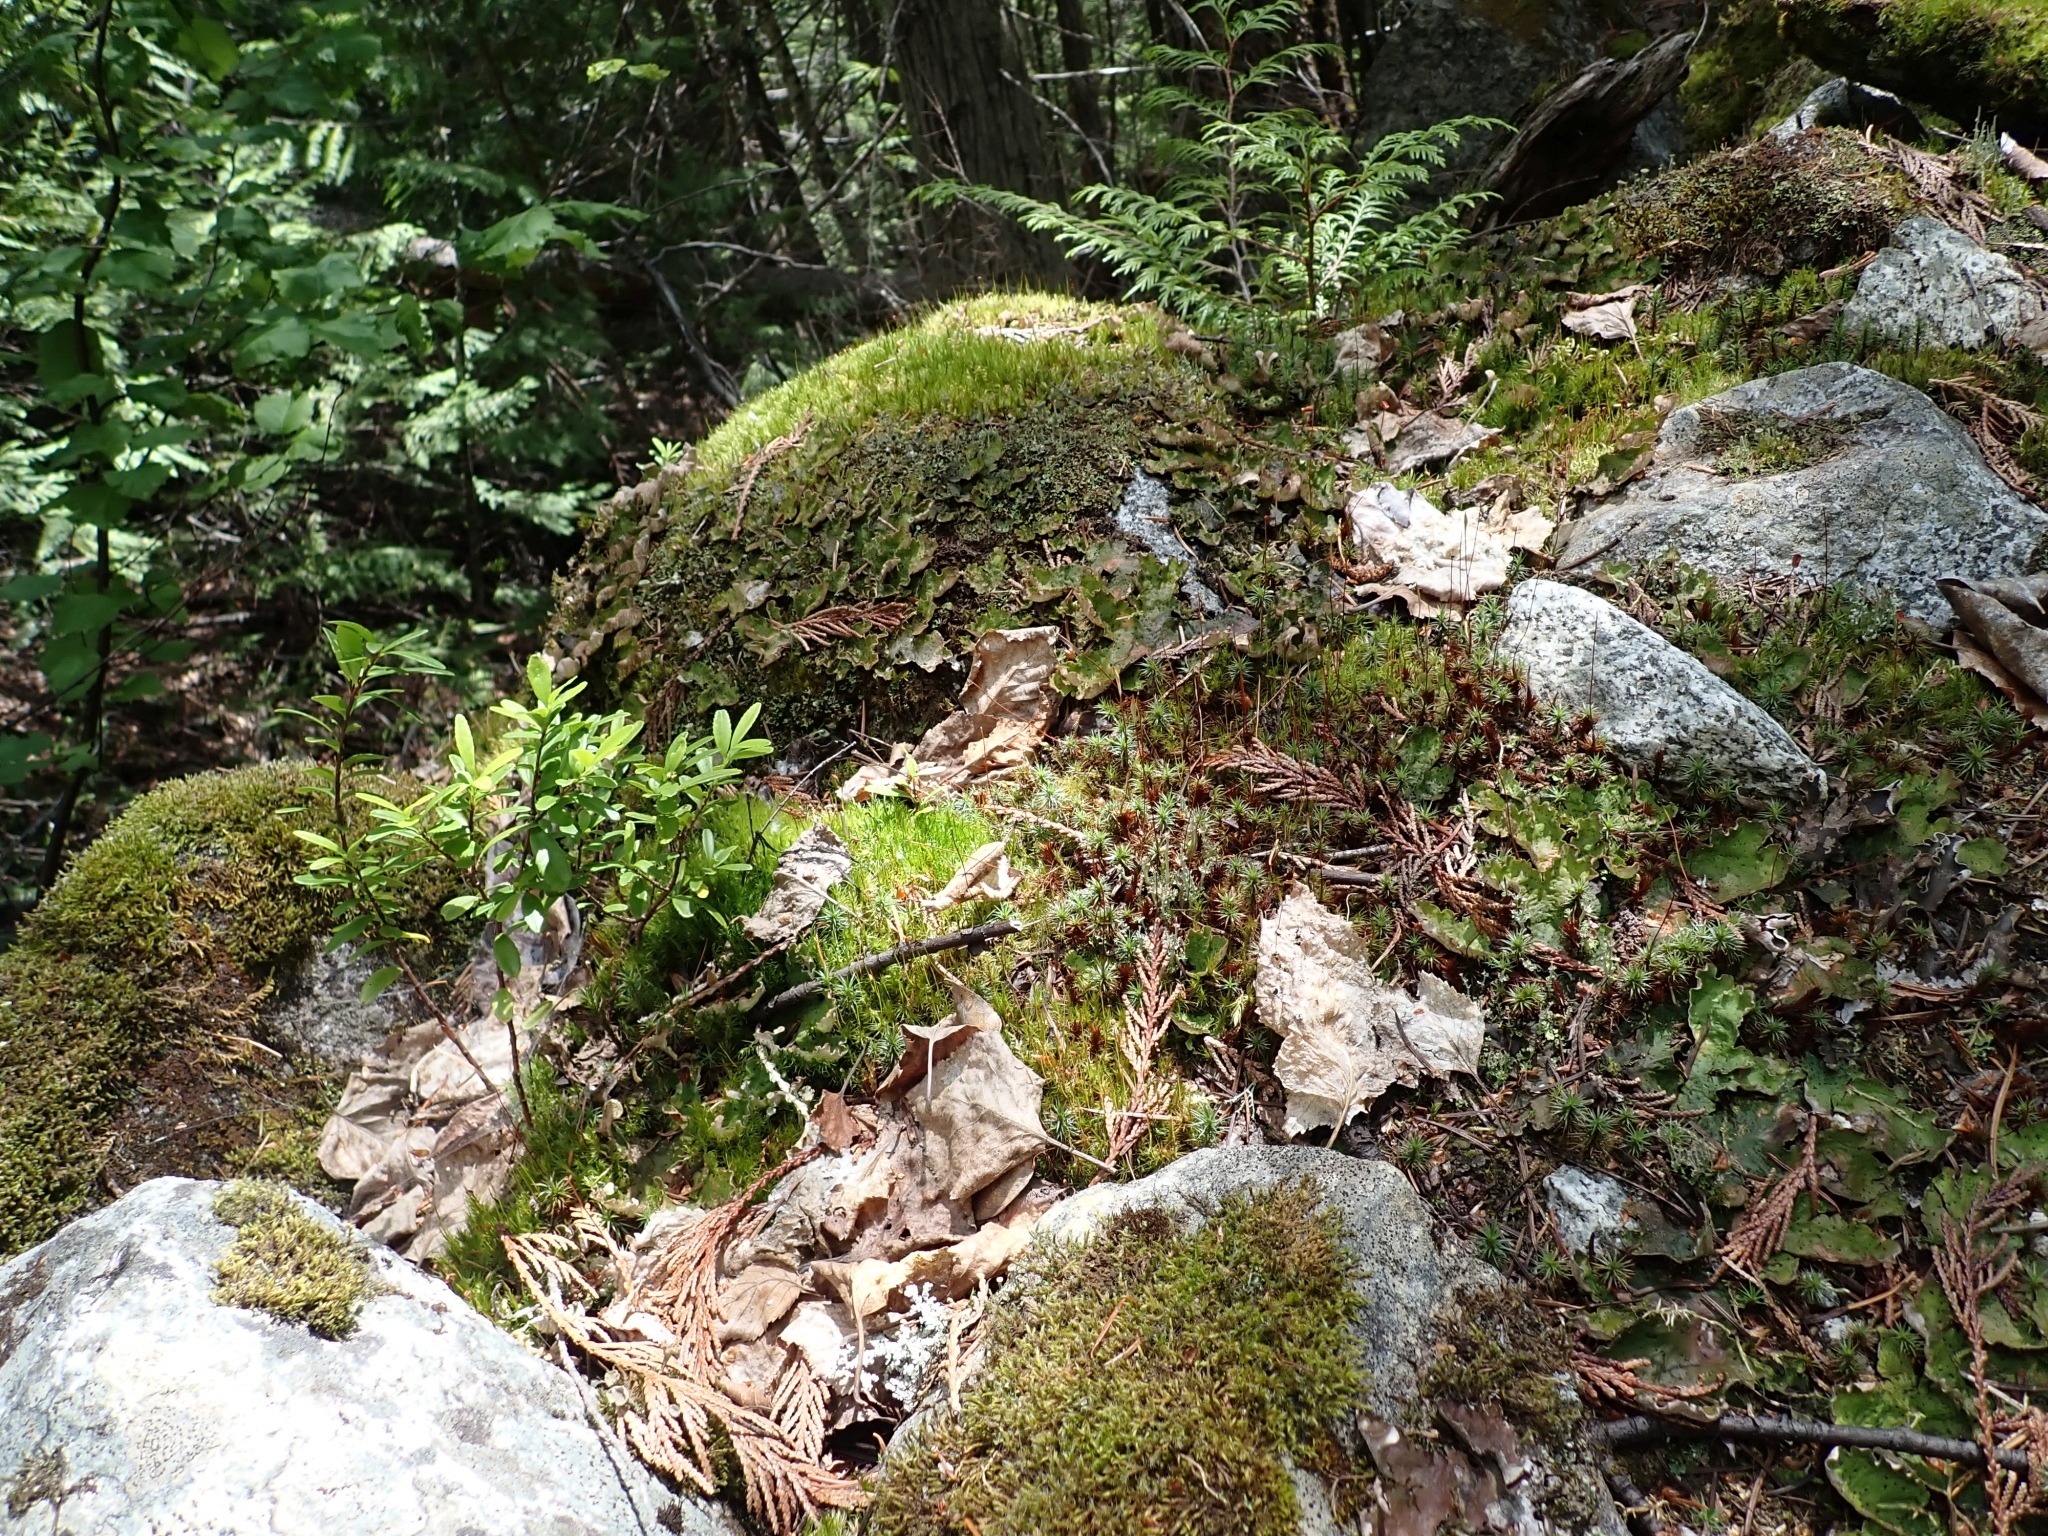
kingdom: Plantae
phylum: Bryophyta
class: Polytrichopsida
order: Polytrichales
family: Polytrichaceae
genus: Polytrichum
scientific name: Polytrichum juniperinum
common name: Juniper haircap moss
